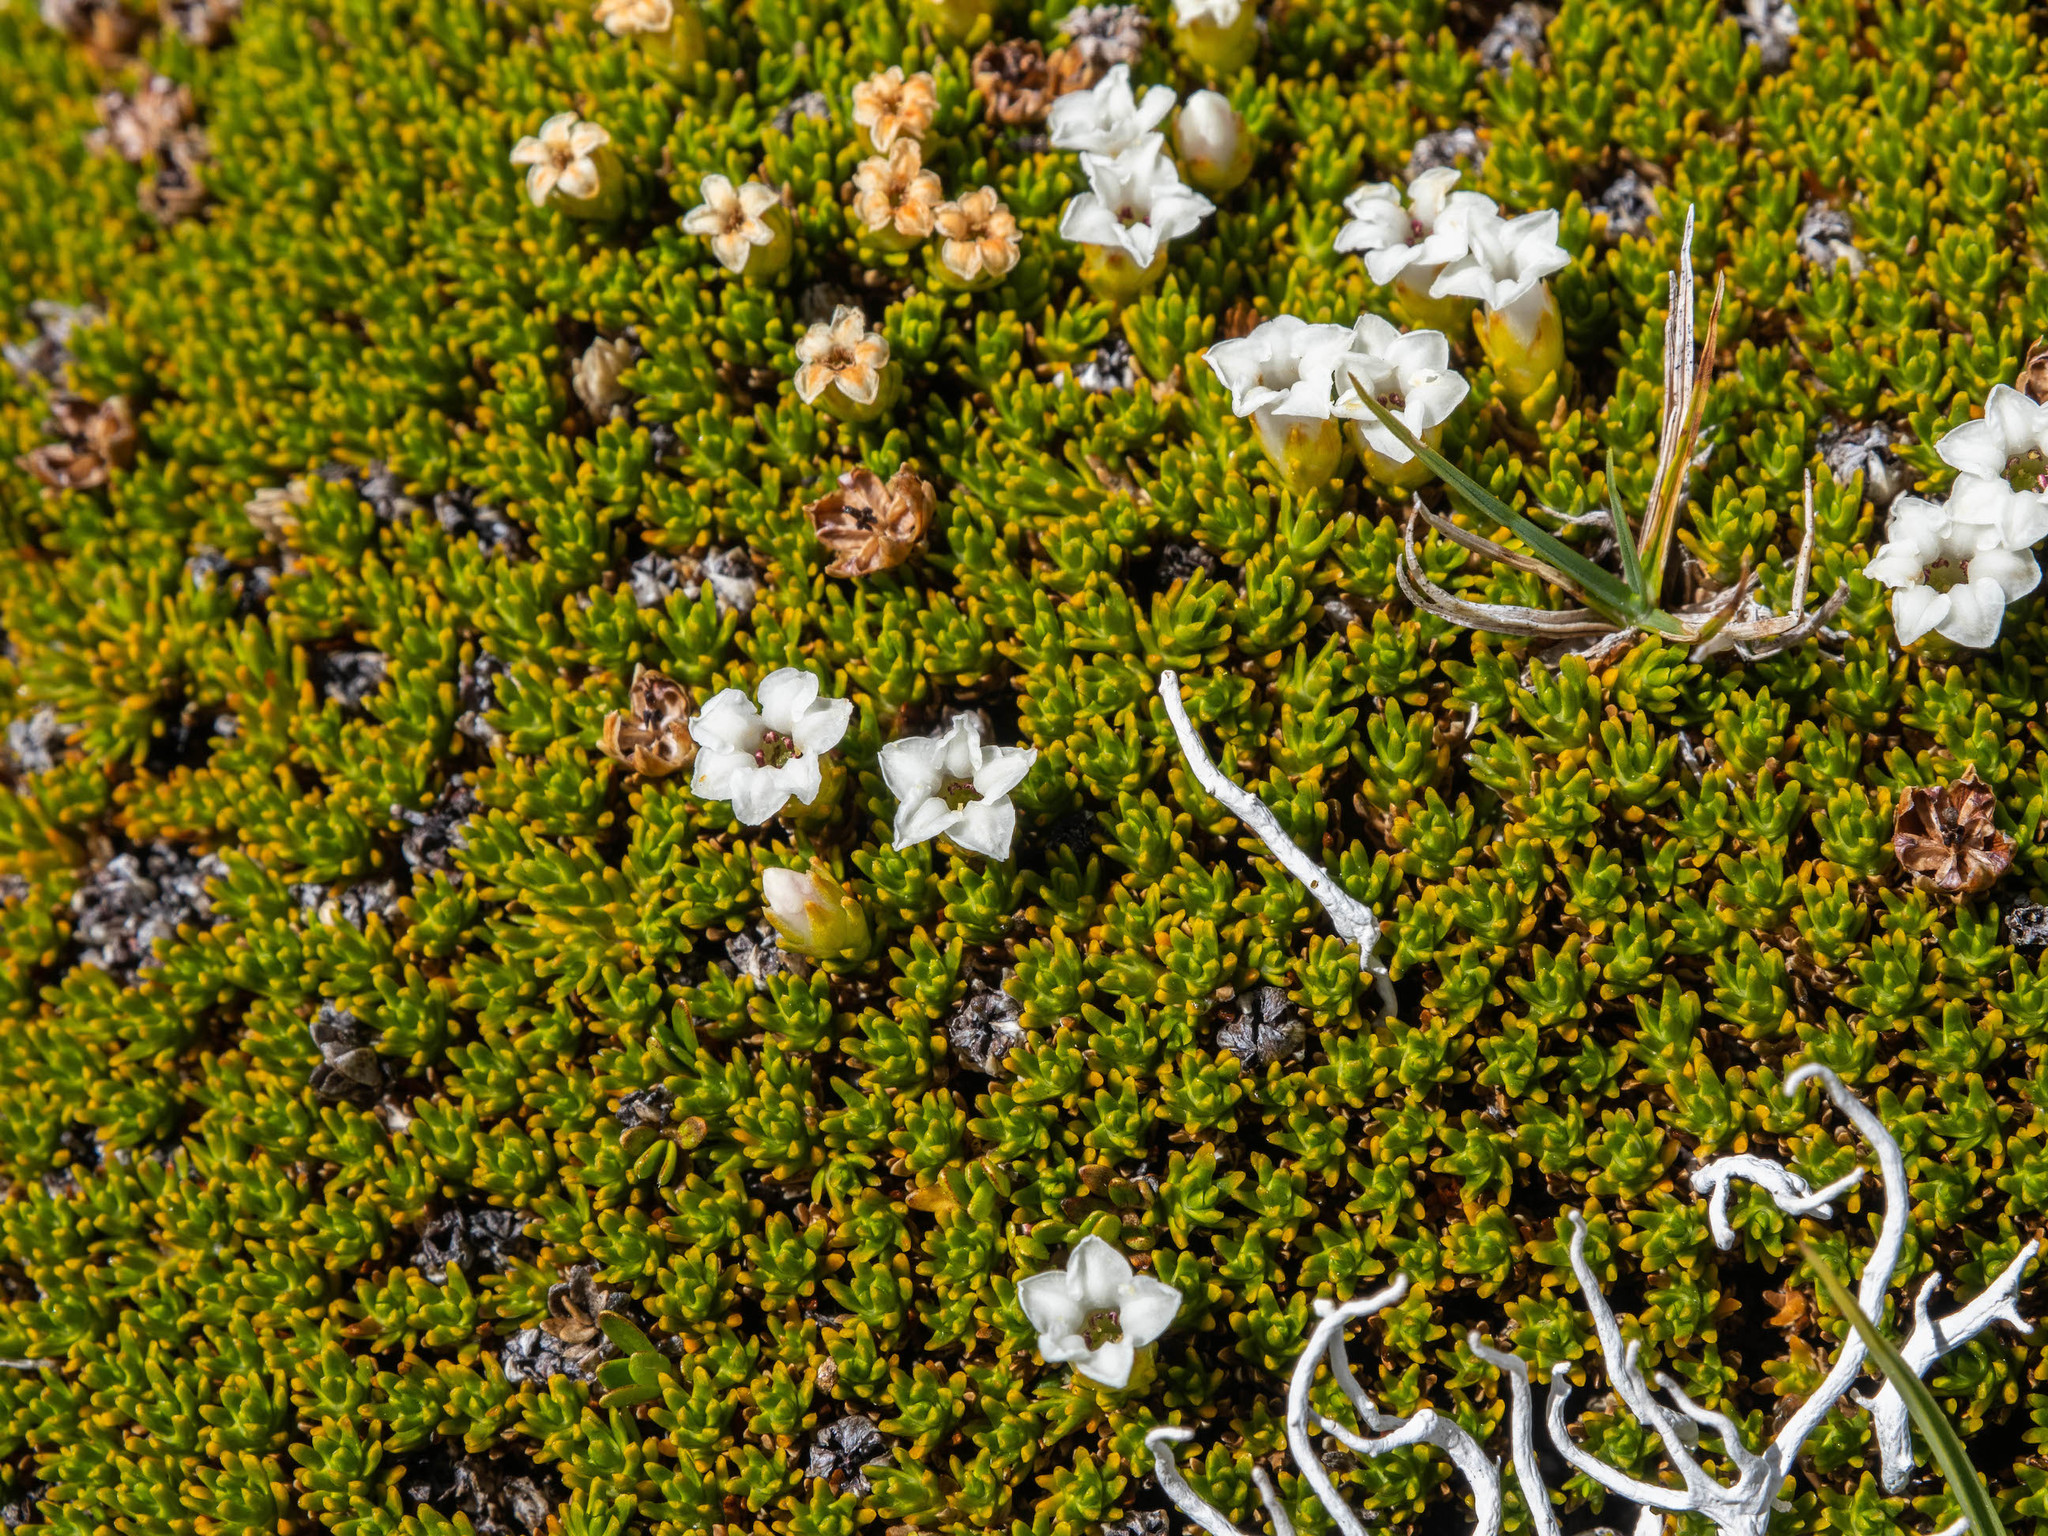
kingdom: Plantae
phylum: Tracheophyta
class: Magnoliopsida
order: Asterales
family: Stylidiaceae
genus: Donatia
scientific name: Donatia novae-zelandiae
